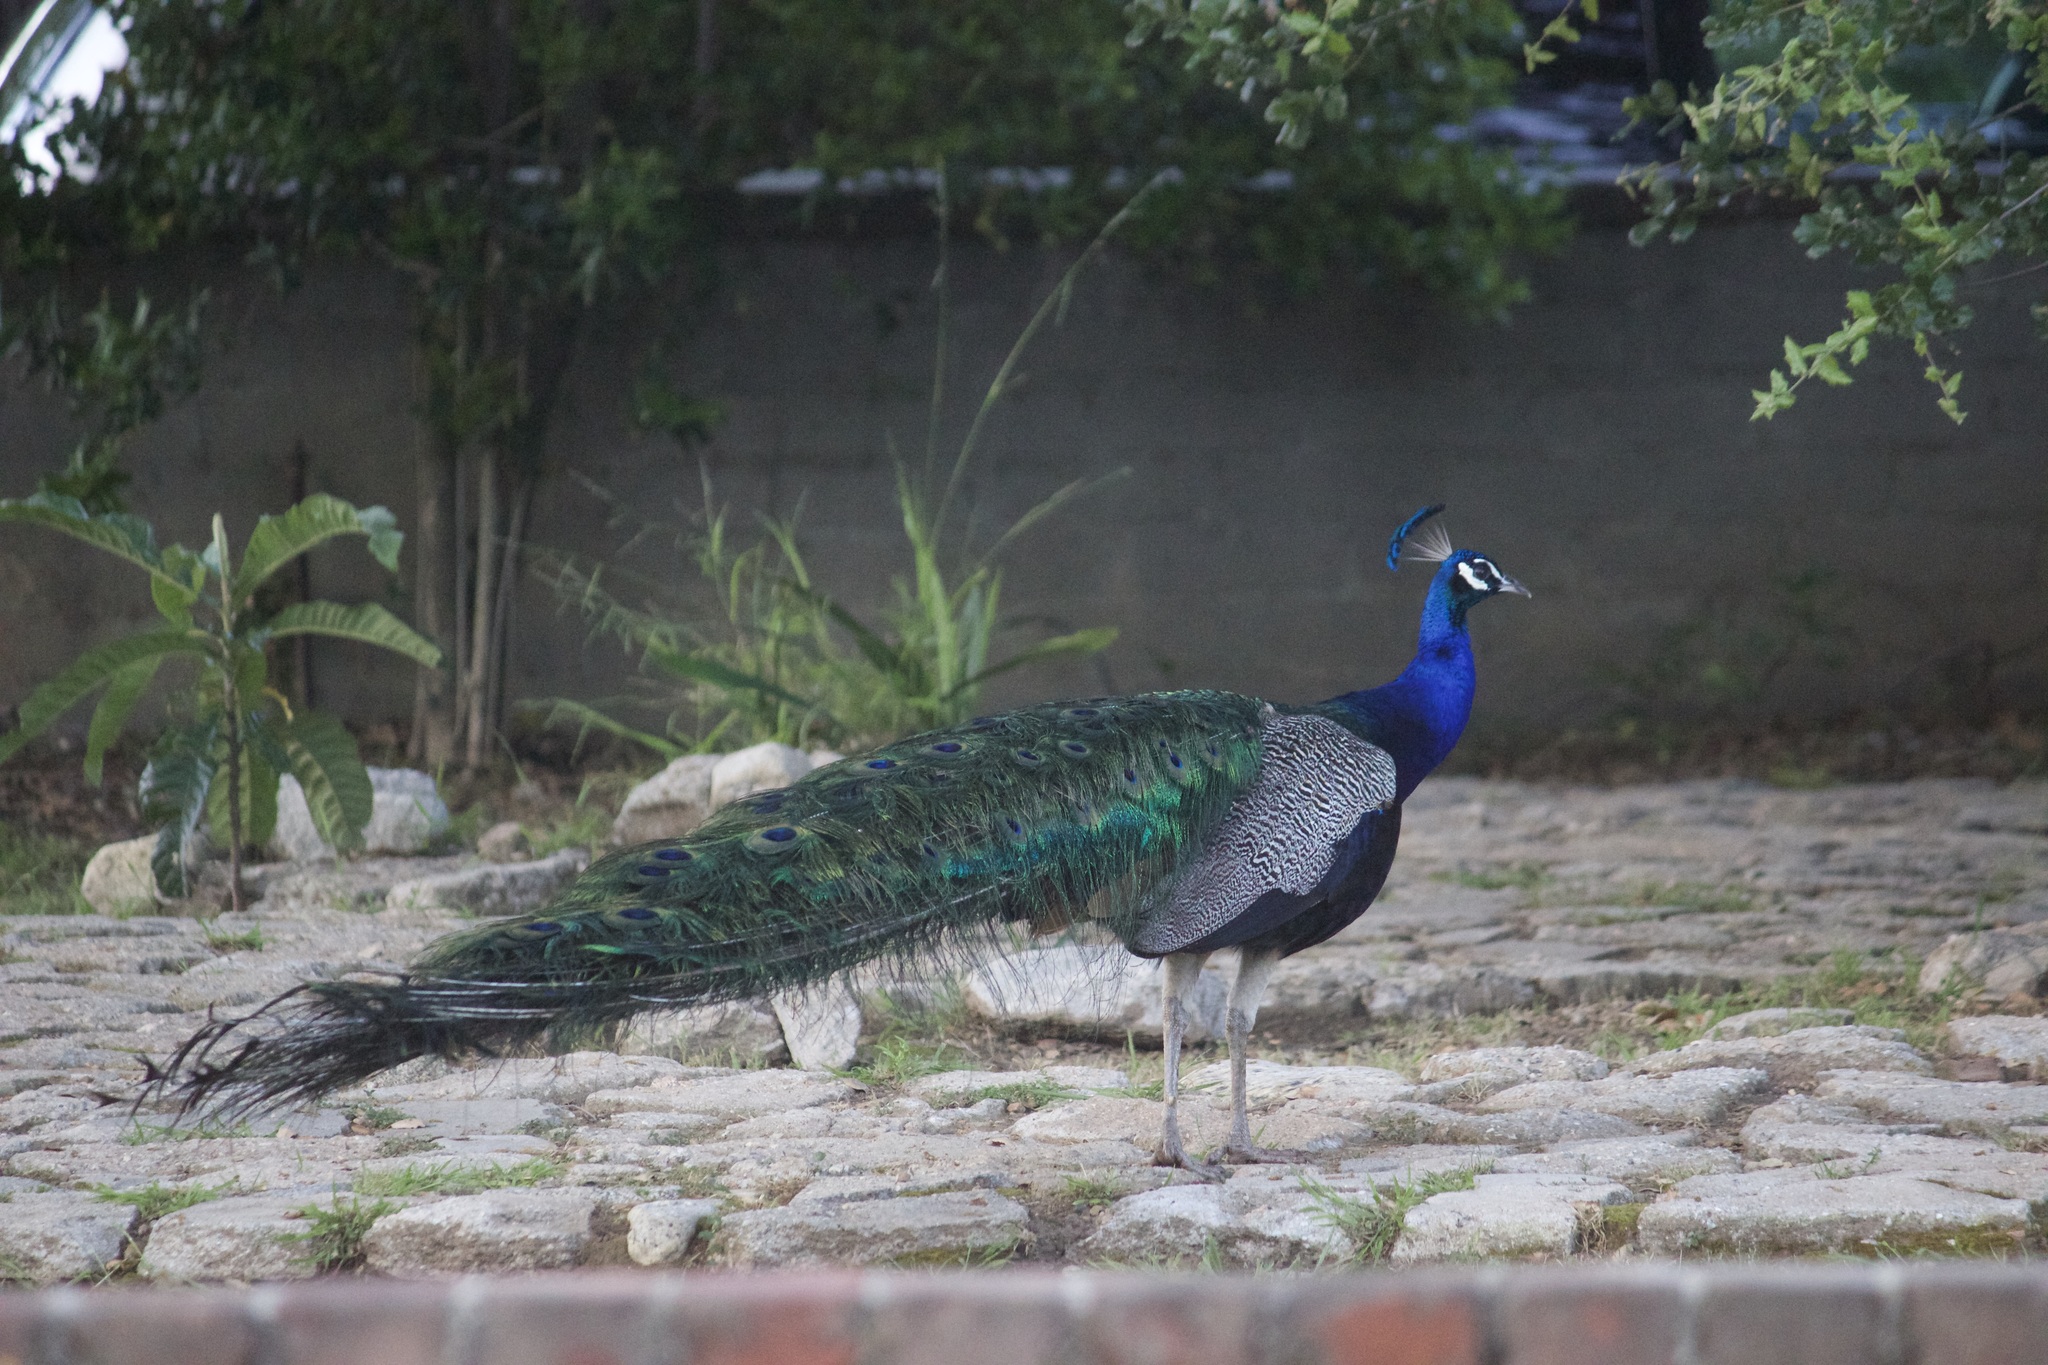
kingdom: Animalia
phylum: Chordata
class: Aves
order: Galliformes
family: Phasianidae
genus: Pavo
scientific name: Pavo cristatus
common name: Indian peafowl
